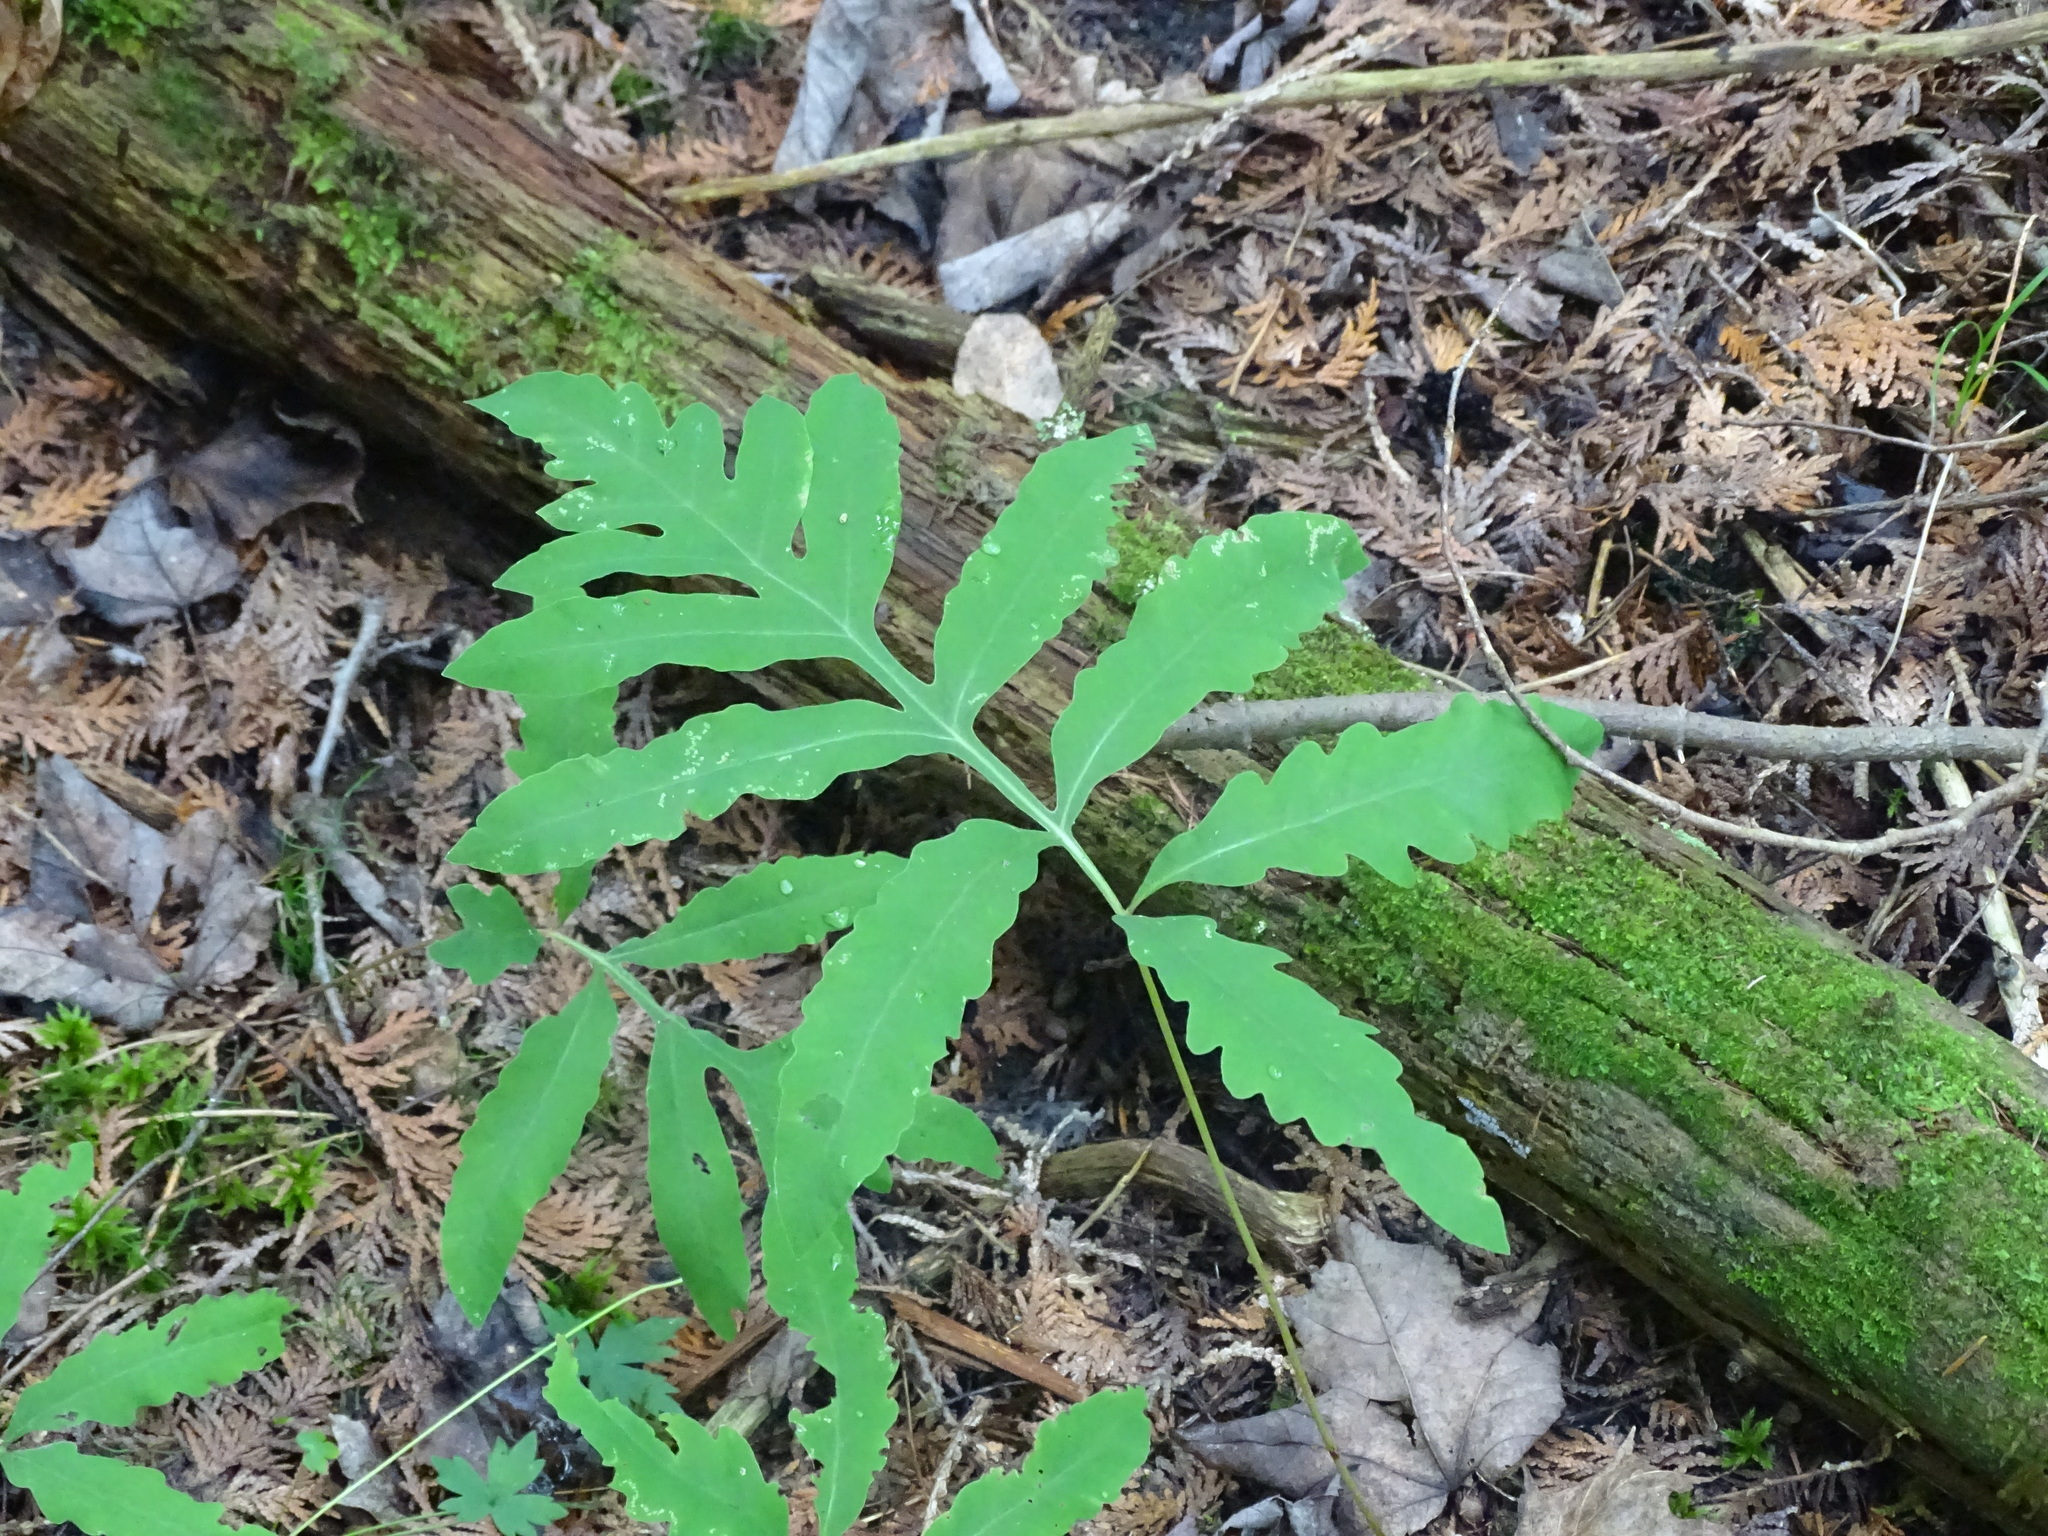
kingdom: Plantae
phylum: Tracheophyta
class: Polypodiopsida
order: Polypodiales
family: Onocleaceae
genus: Onoclea
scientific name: Onoclea sensibilis
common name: Sensitive fern
